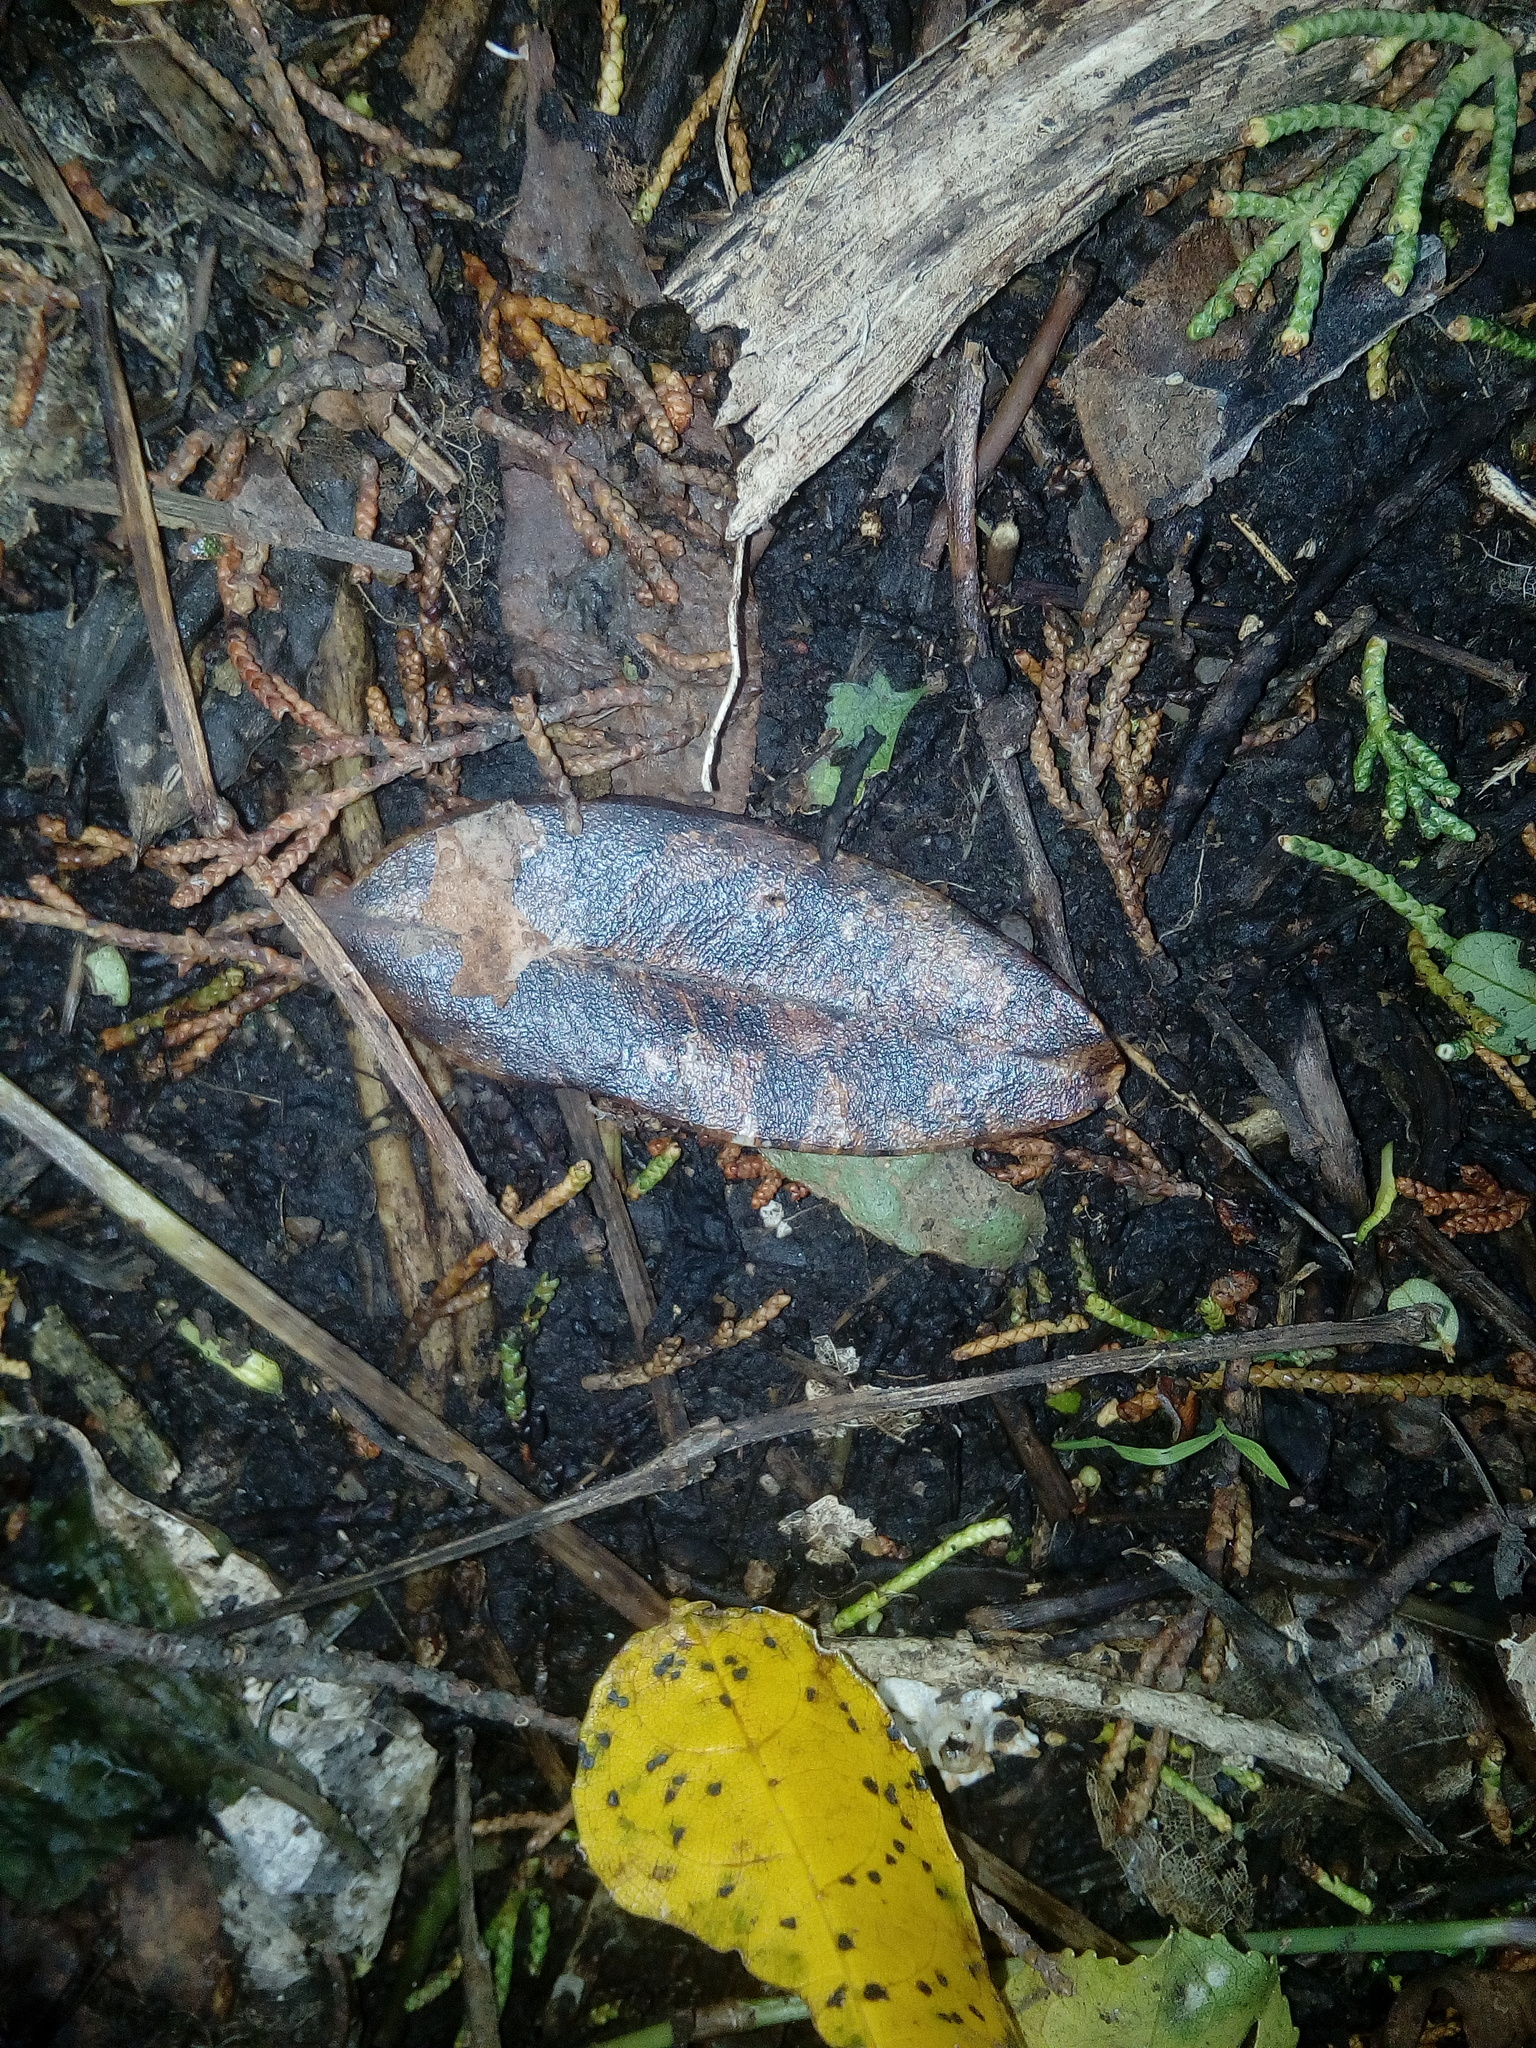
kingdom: Plantae
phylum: Tracheophyta
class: Magnoliopsida
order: Apiales
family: Pittosporaceae
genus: Pittosporum
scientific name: Pittosporum ralphii
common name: Ralph's desertwillow
